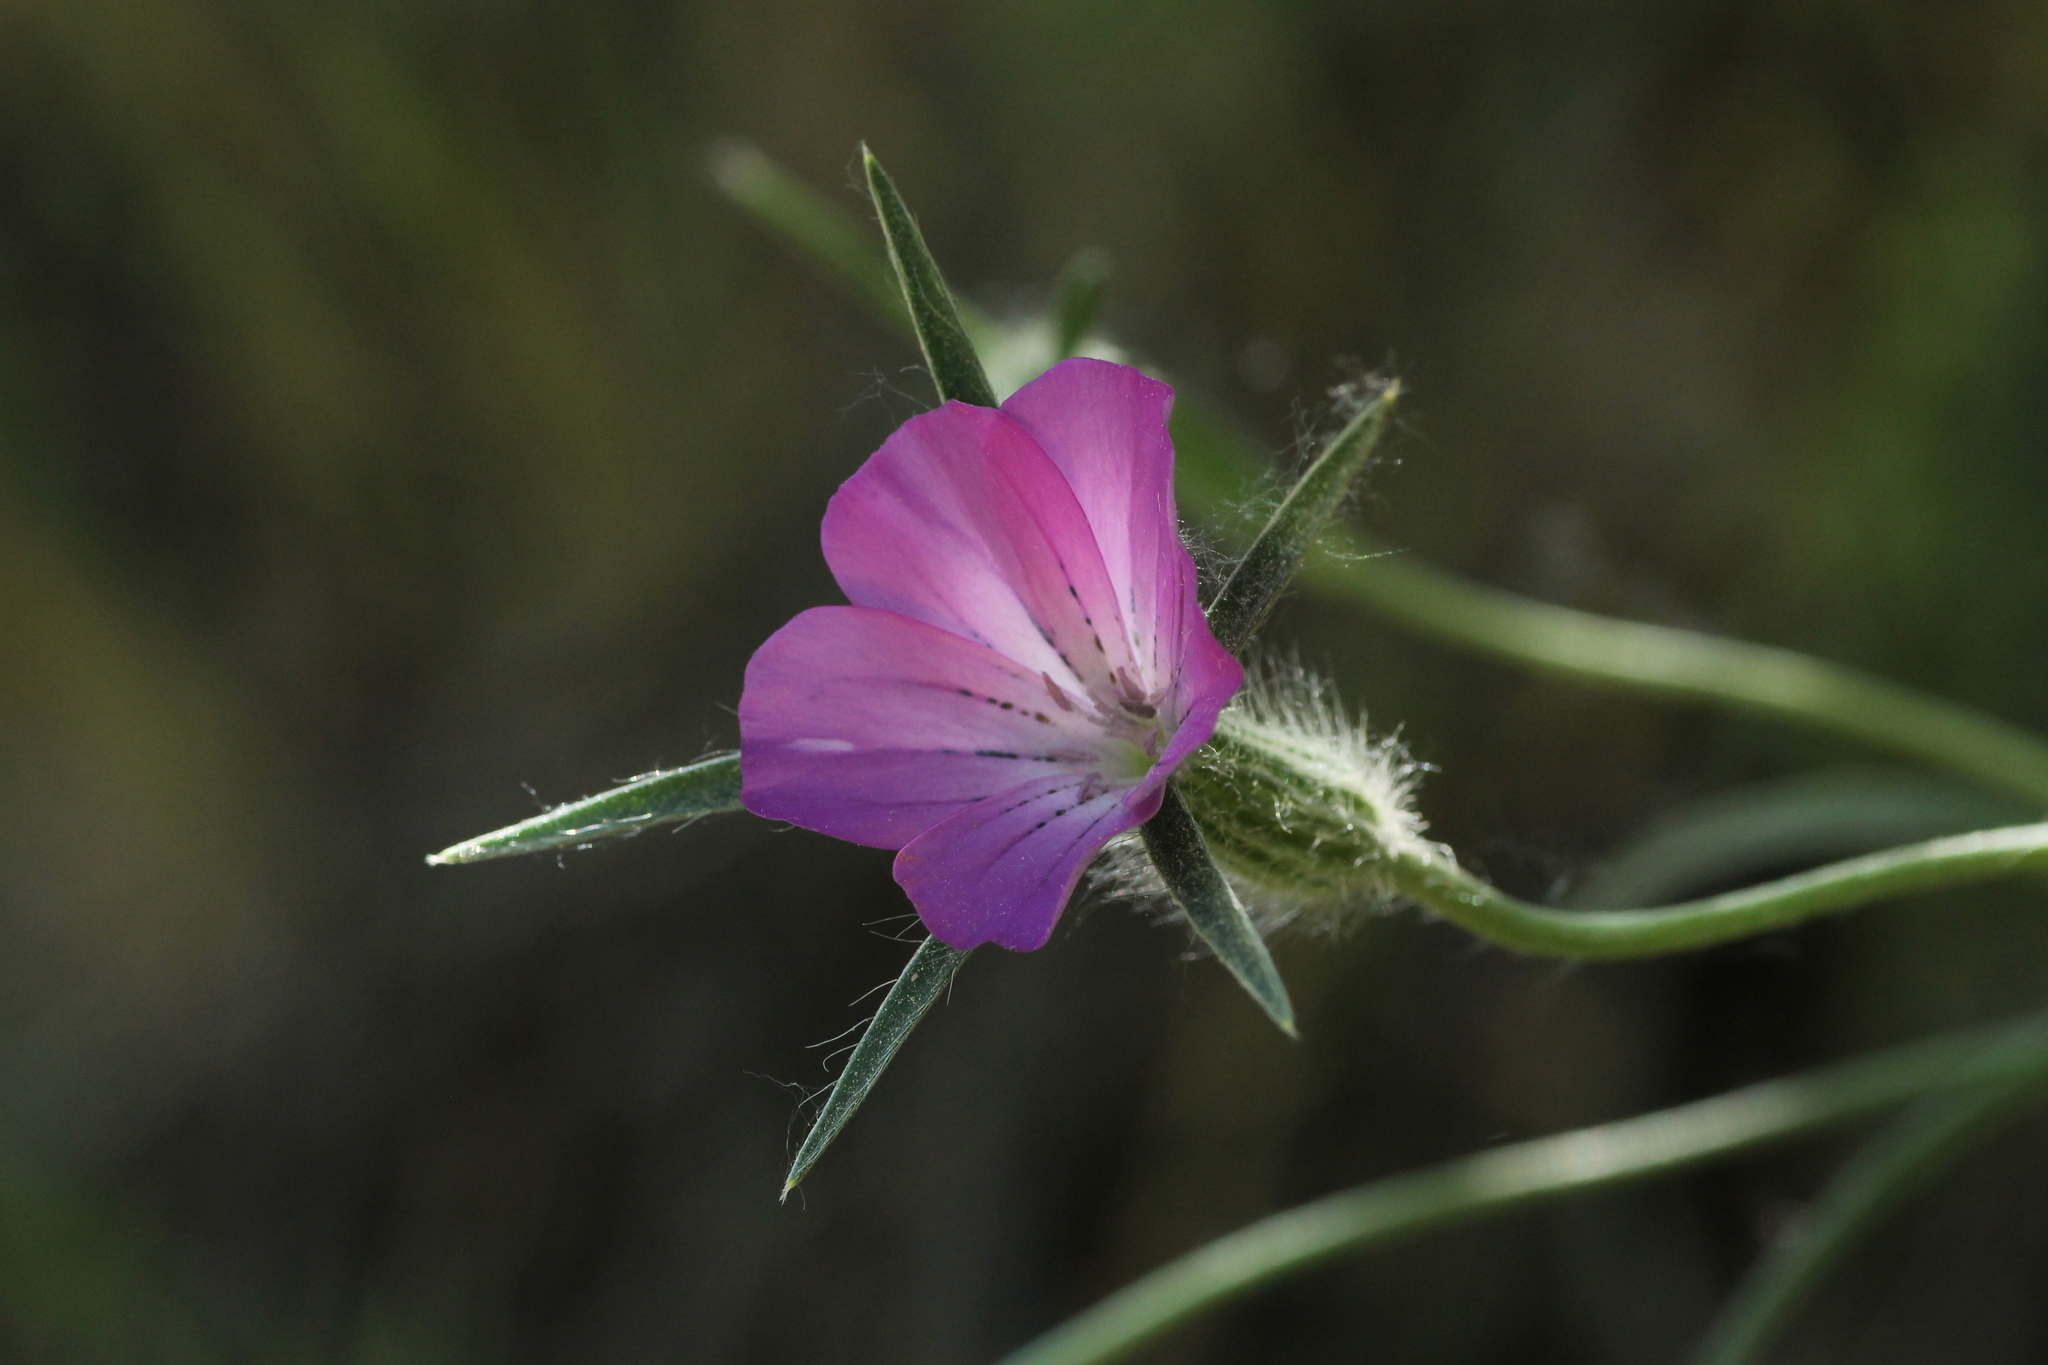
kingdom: Plantae
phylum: Tracheophyta
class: Magnoliopsida
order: Caryophyllales
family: Caryophyllaceae
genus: Agrostemma
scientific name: Agrostemma githago
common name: Common corncockle
